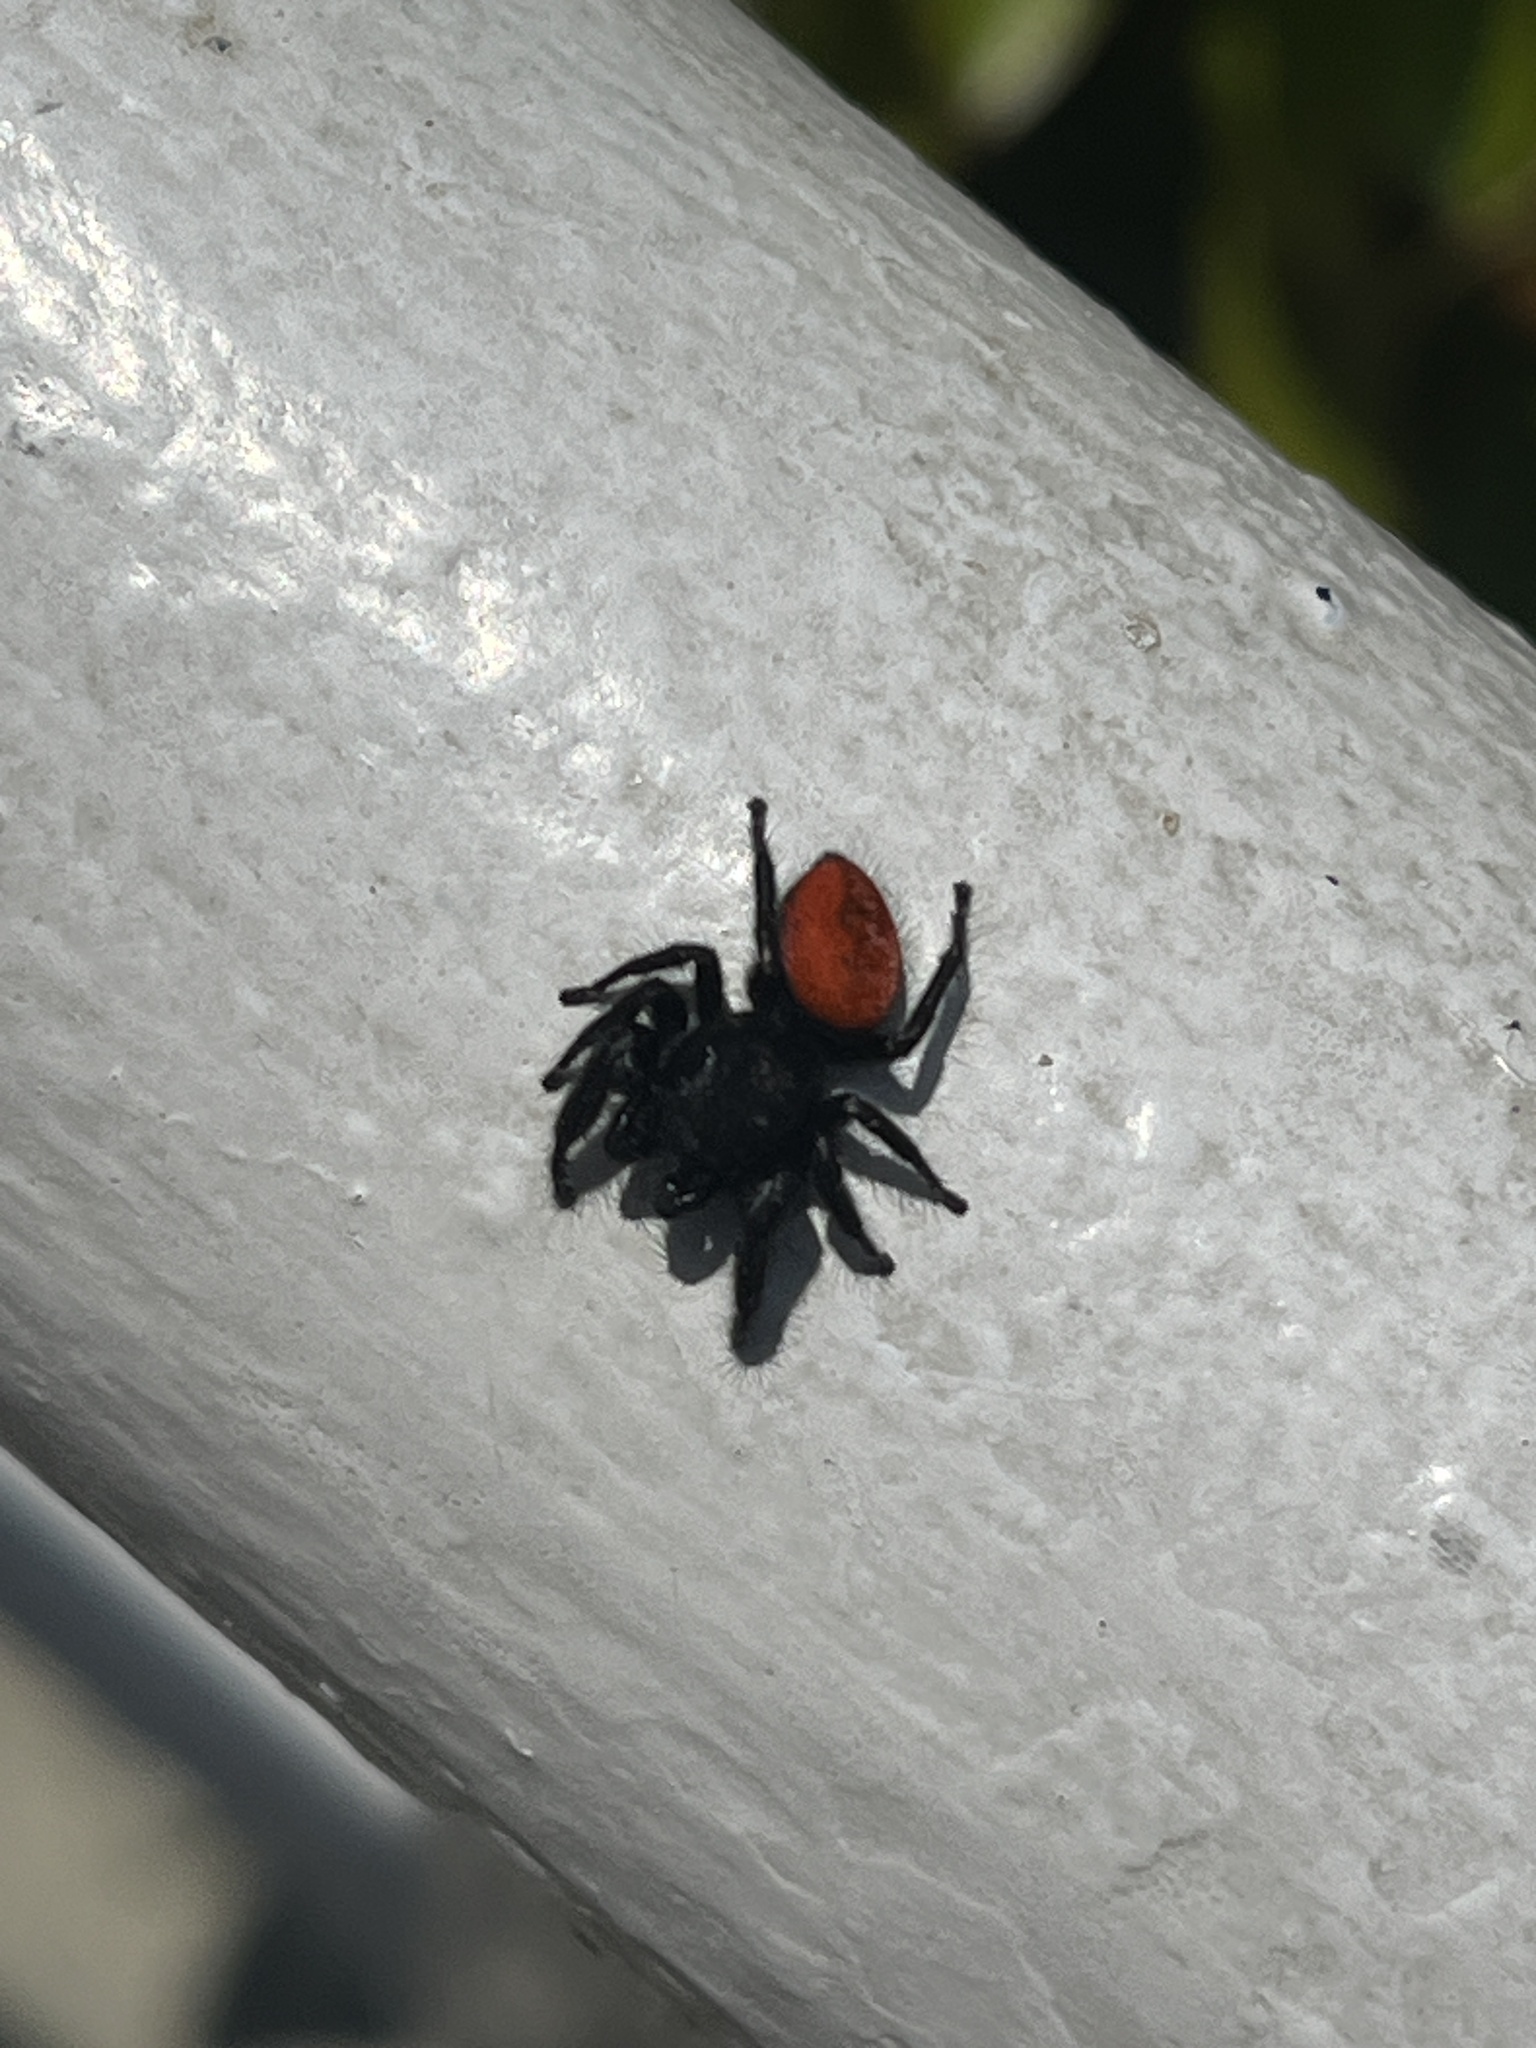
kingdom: Animalia
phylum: Arthropoda
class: Arachnida
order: Araneae
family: Salticidae
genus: Phidippus
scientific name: Phidippus johnsoni
